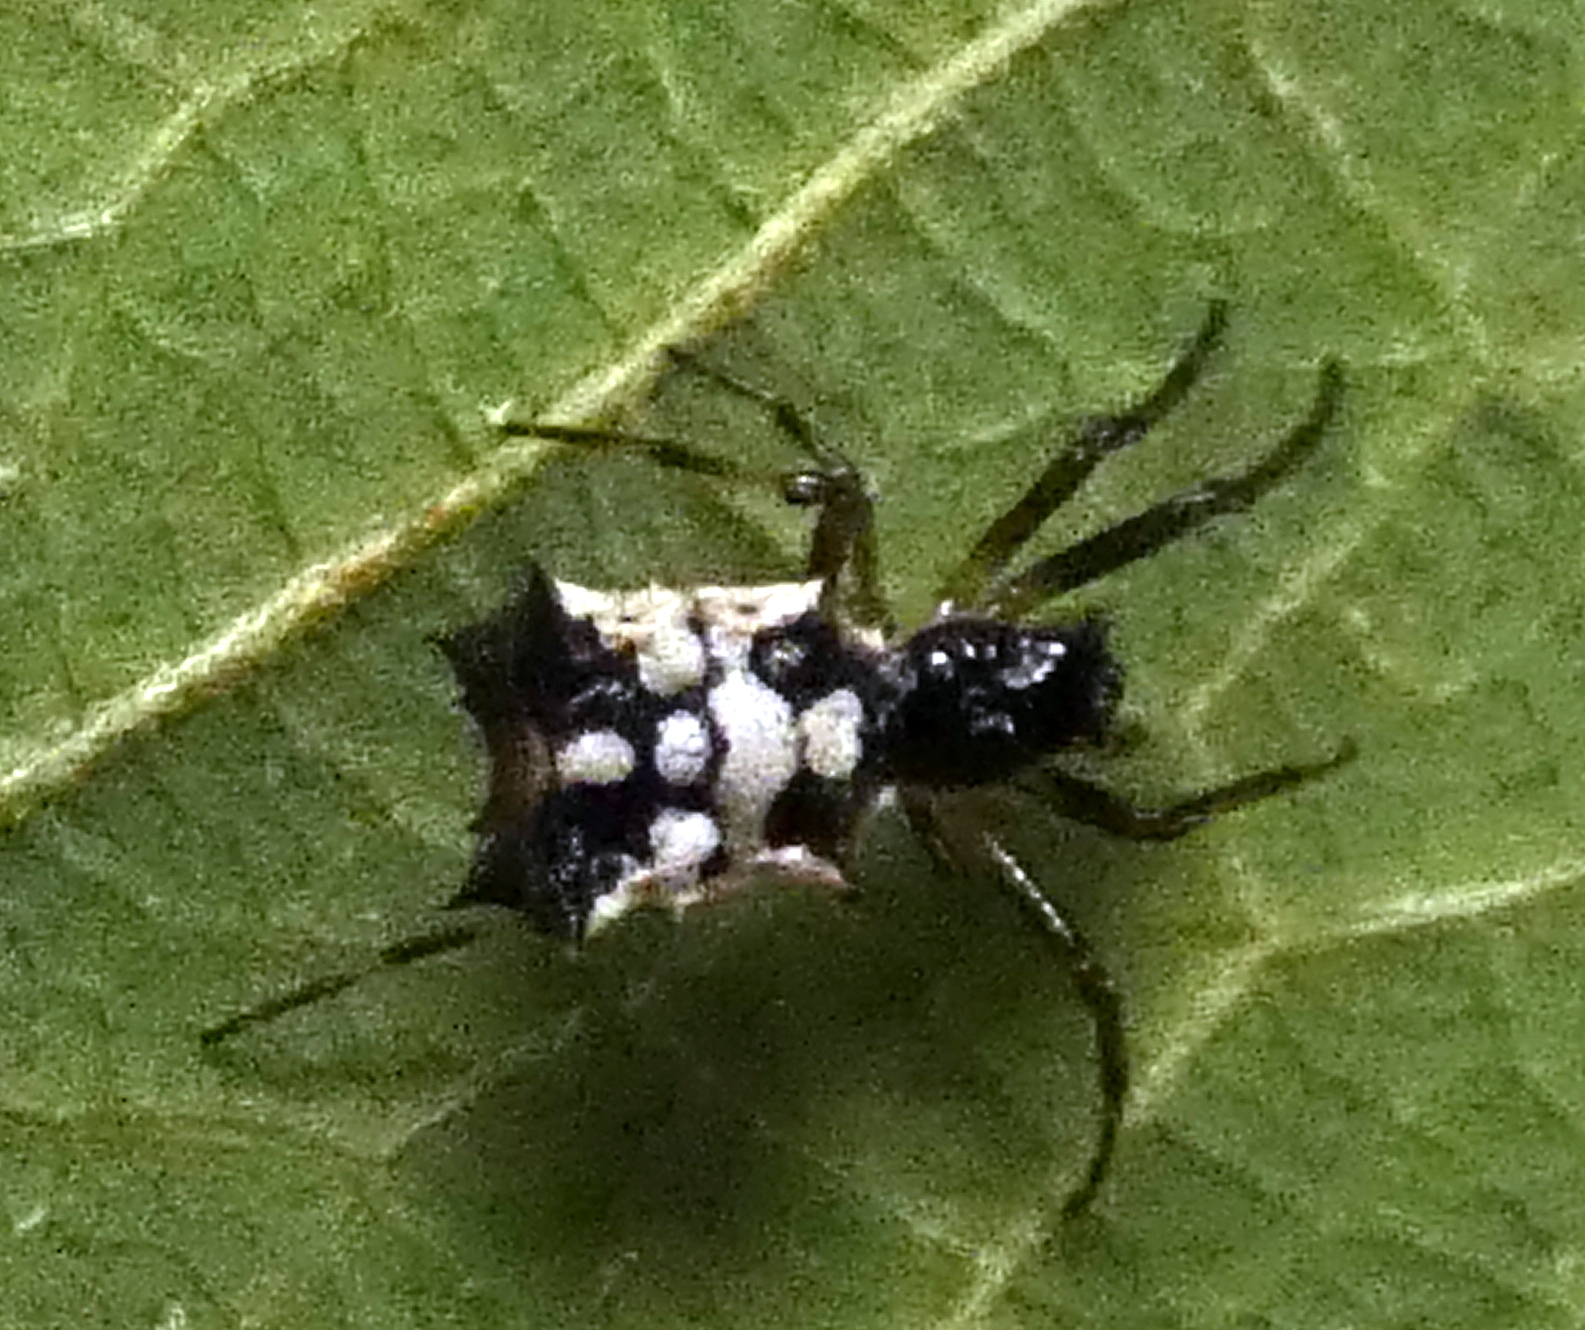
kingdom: Animalia
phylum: Arthropoda
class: Arachnida
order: Araneae
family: Araneidae
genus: Micrathena
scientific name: Micrathena picta
